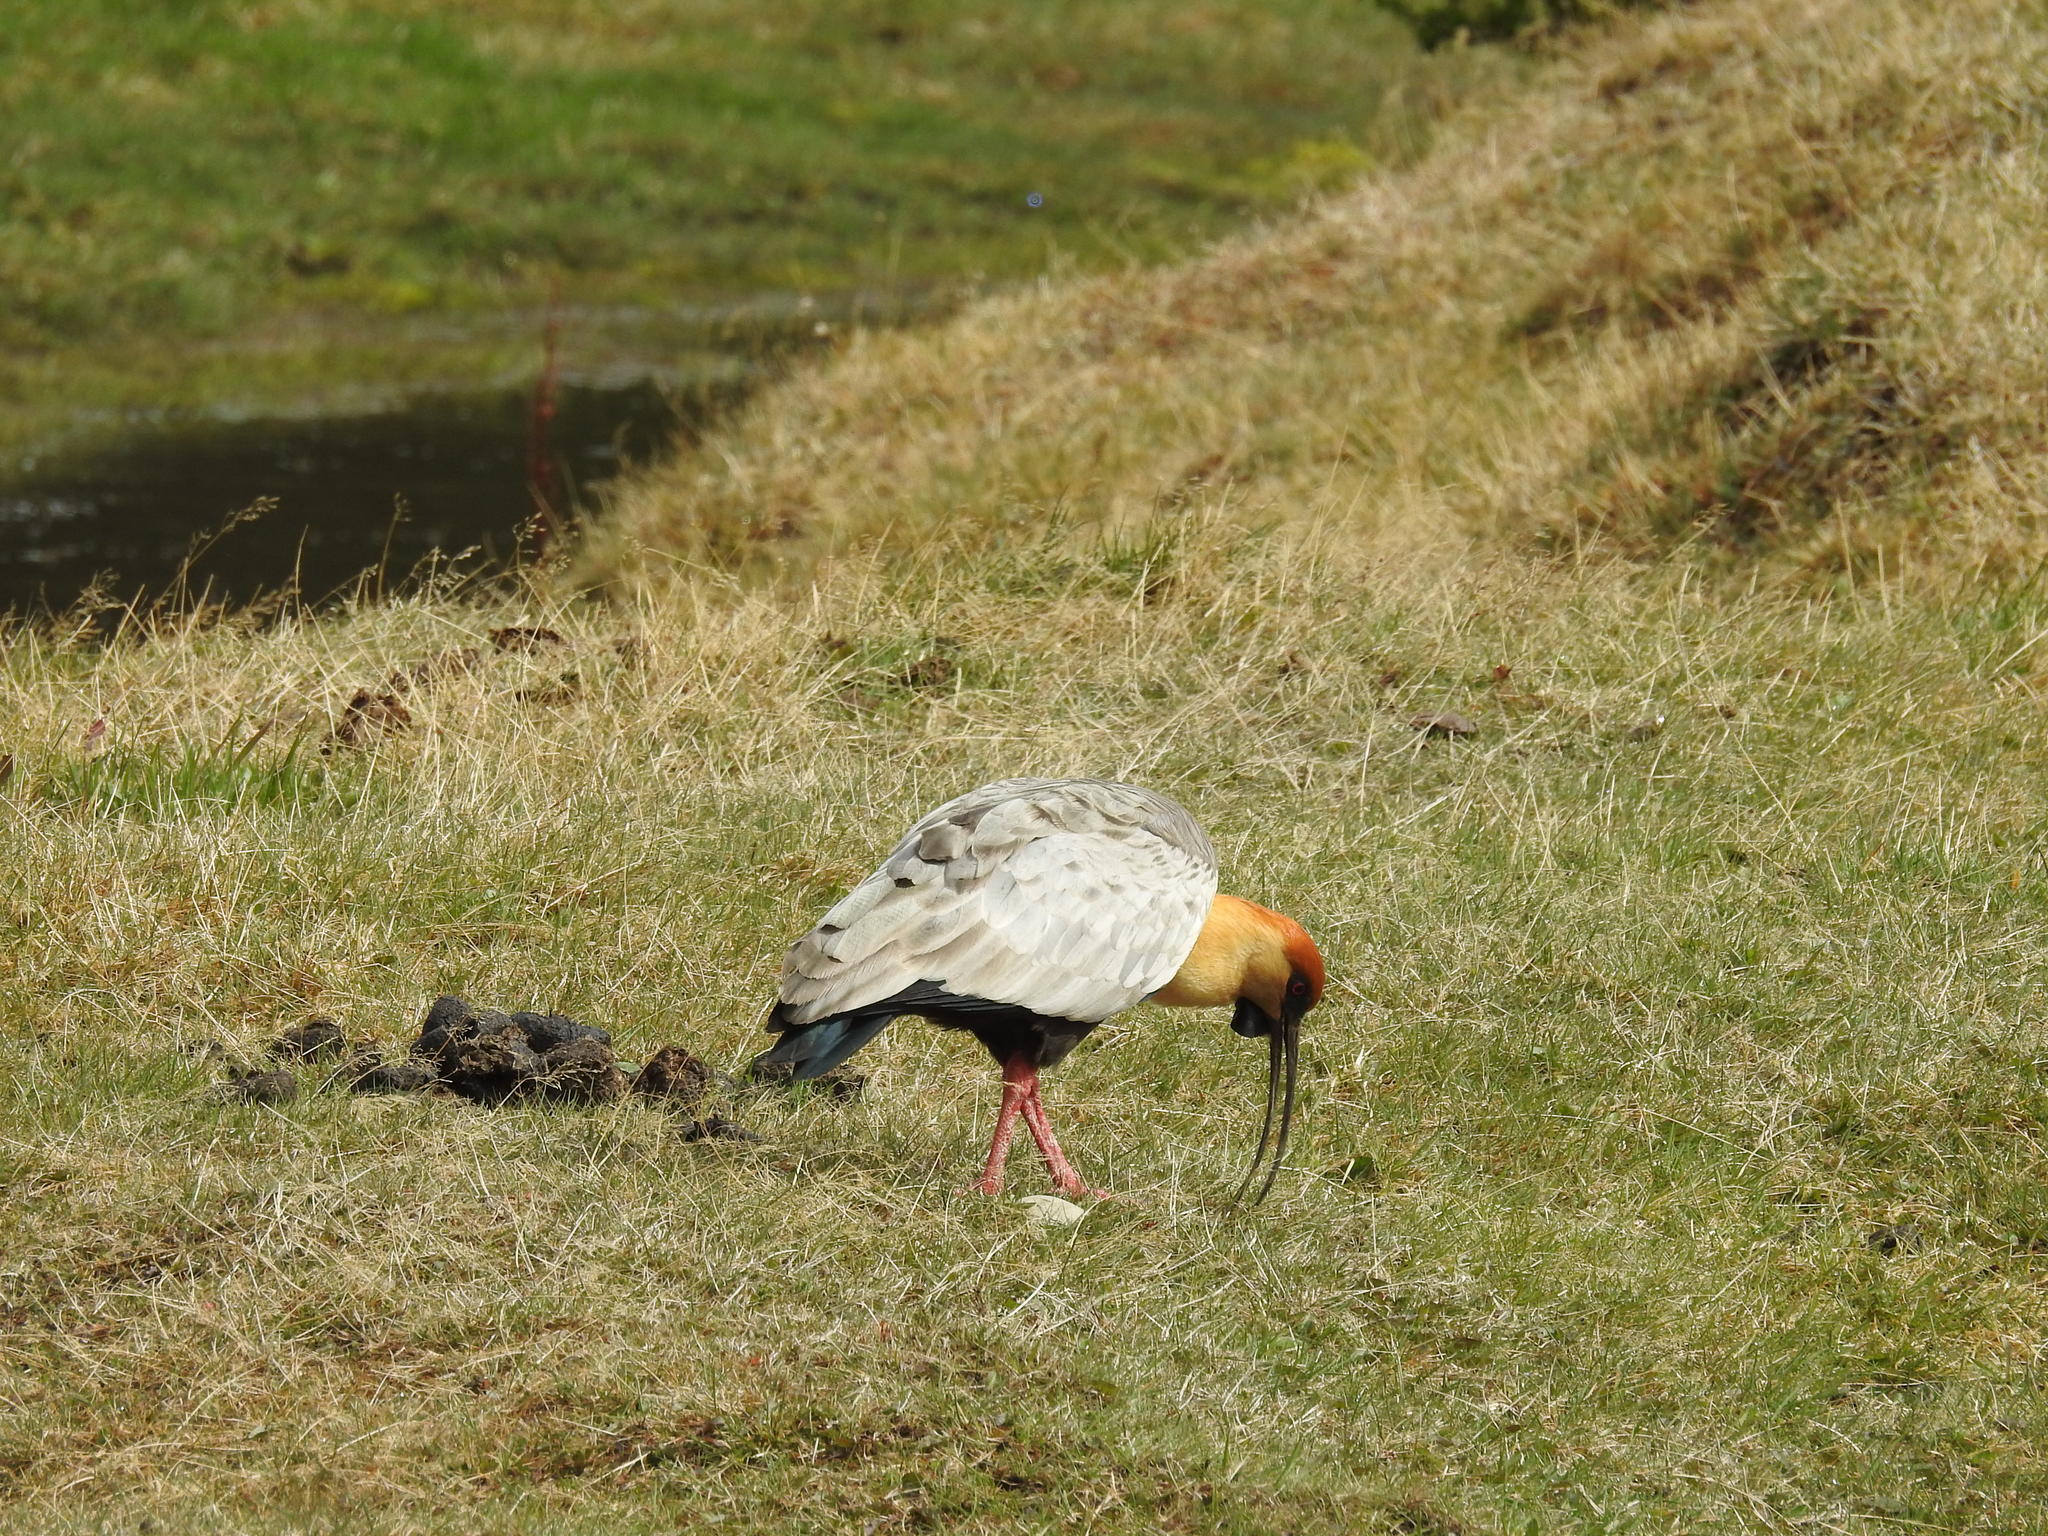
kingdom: Animalia
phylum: Chordata
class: Aves
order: Pelecaniformes
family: Threskiornithidae
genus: Theristicus
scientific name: Theristicus melanopis
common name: Black-faced ibis
